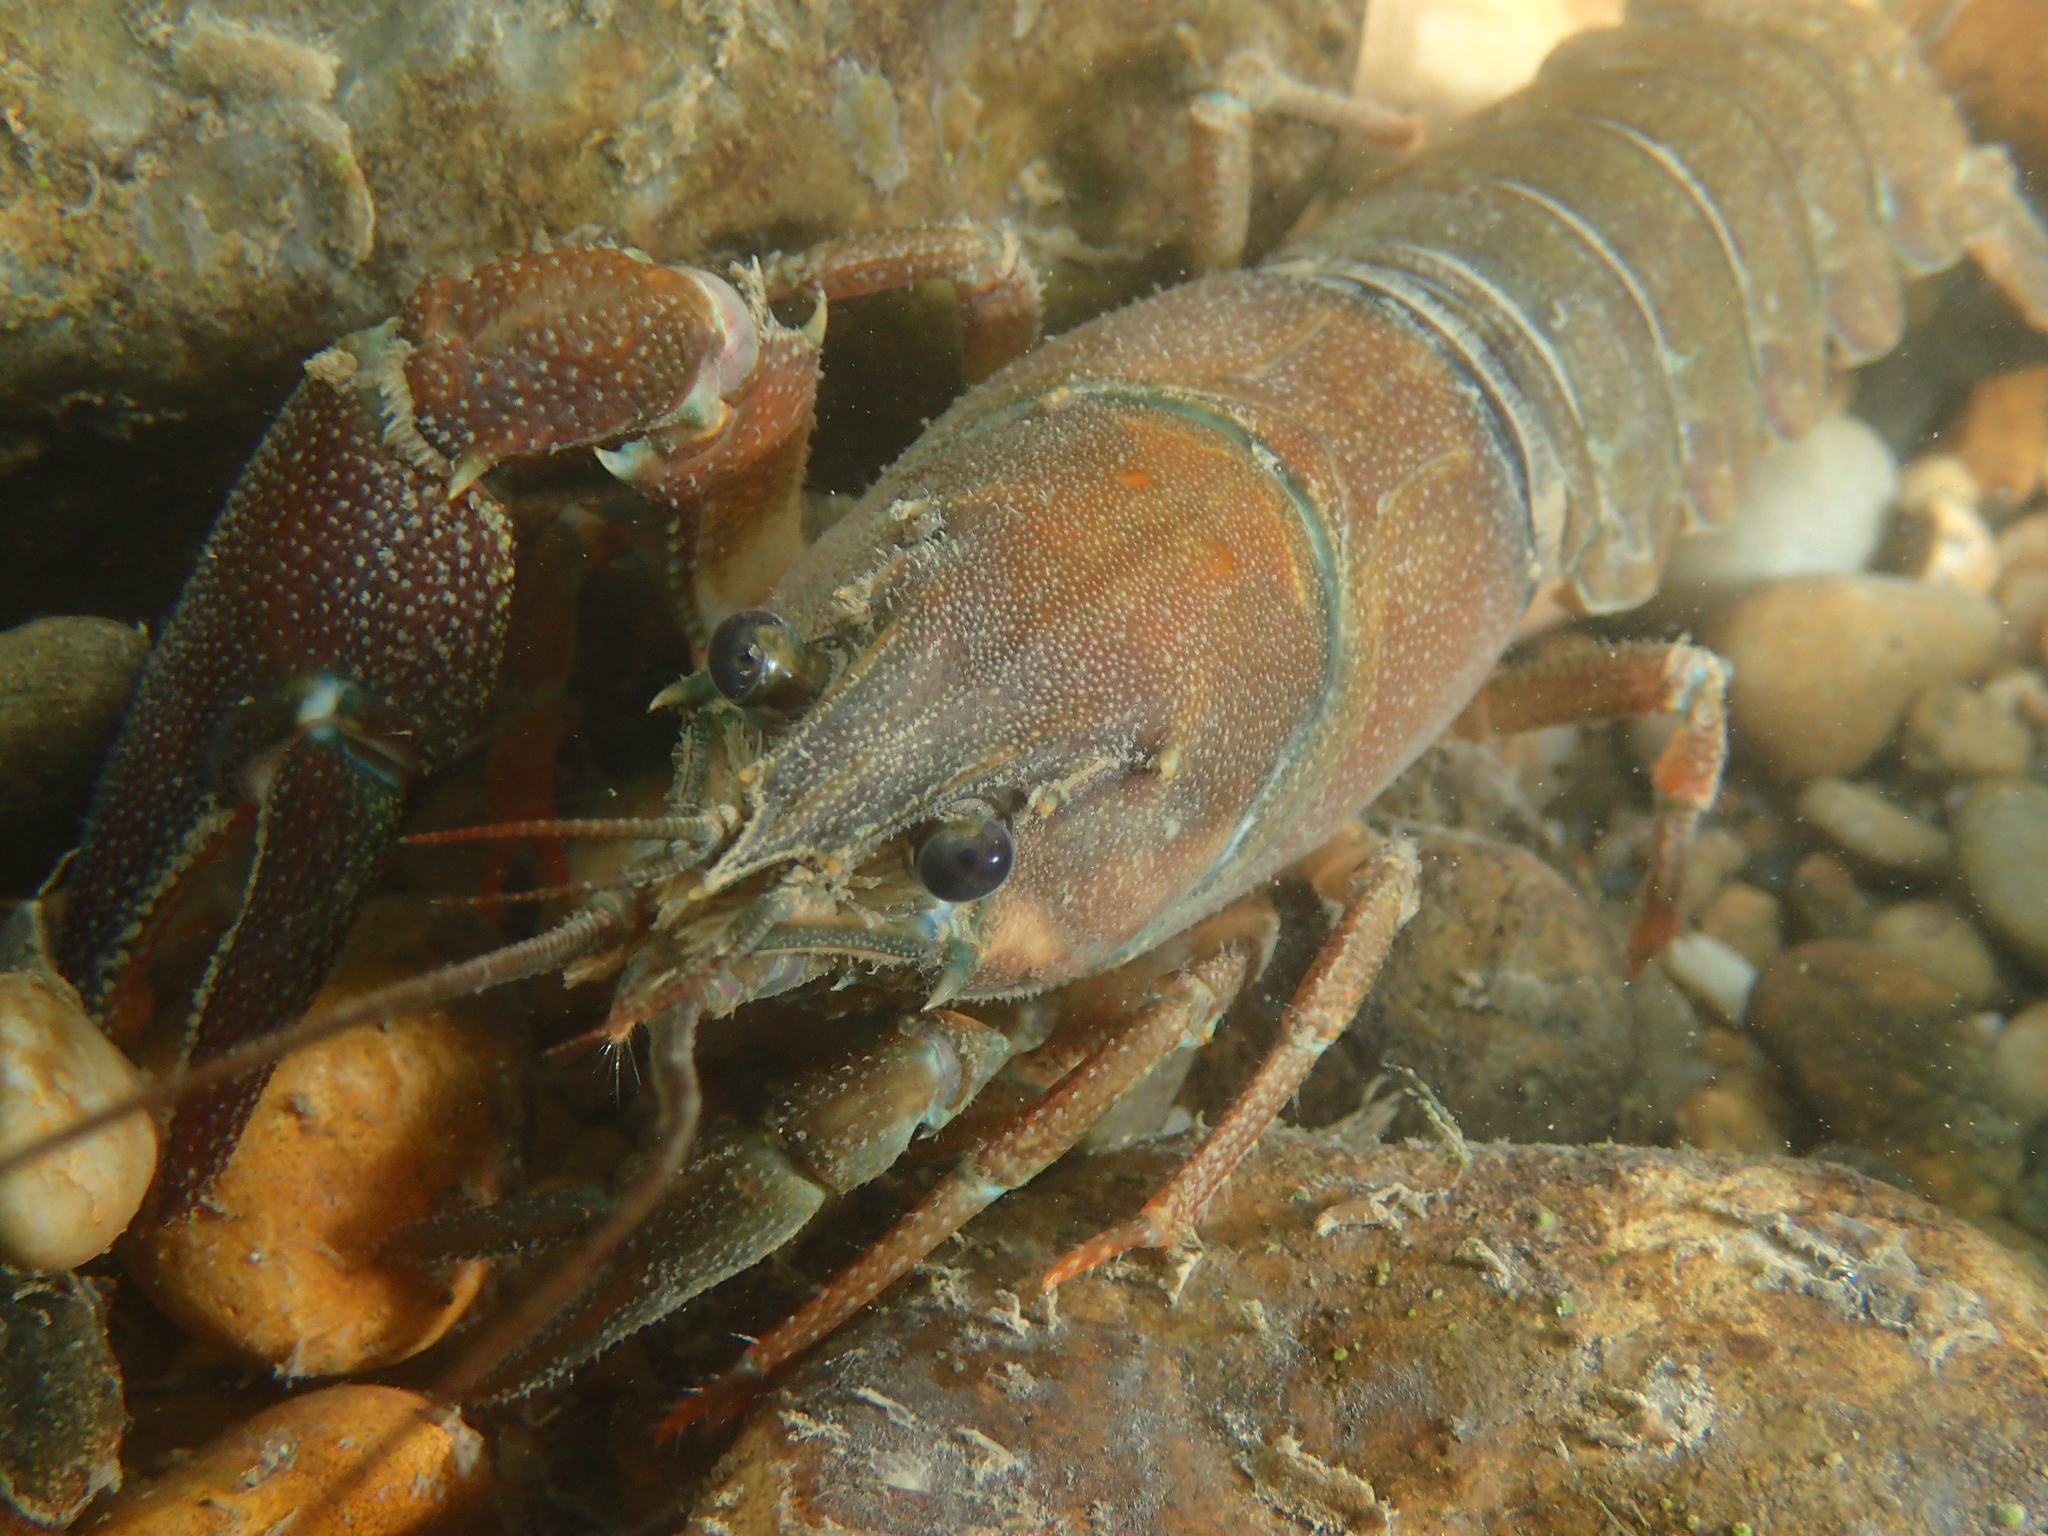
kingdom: Animalia
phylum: Arthropoda
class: Malacostraca
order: Decapoda
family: Astacidae
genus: Pacifastacus
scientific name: Pacifastacus leniusculus
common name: Signal crayfish
